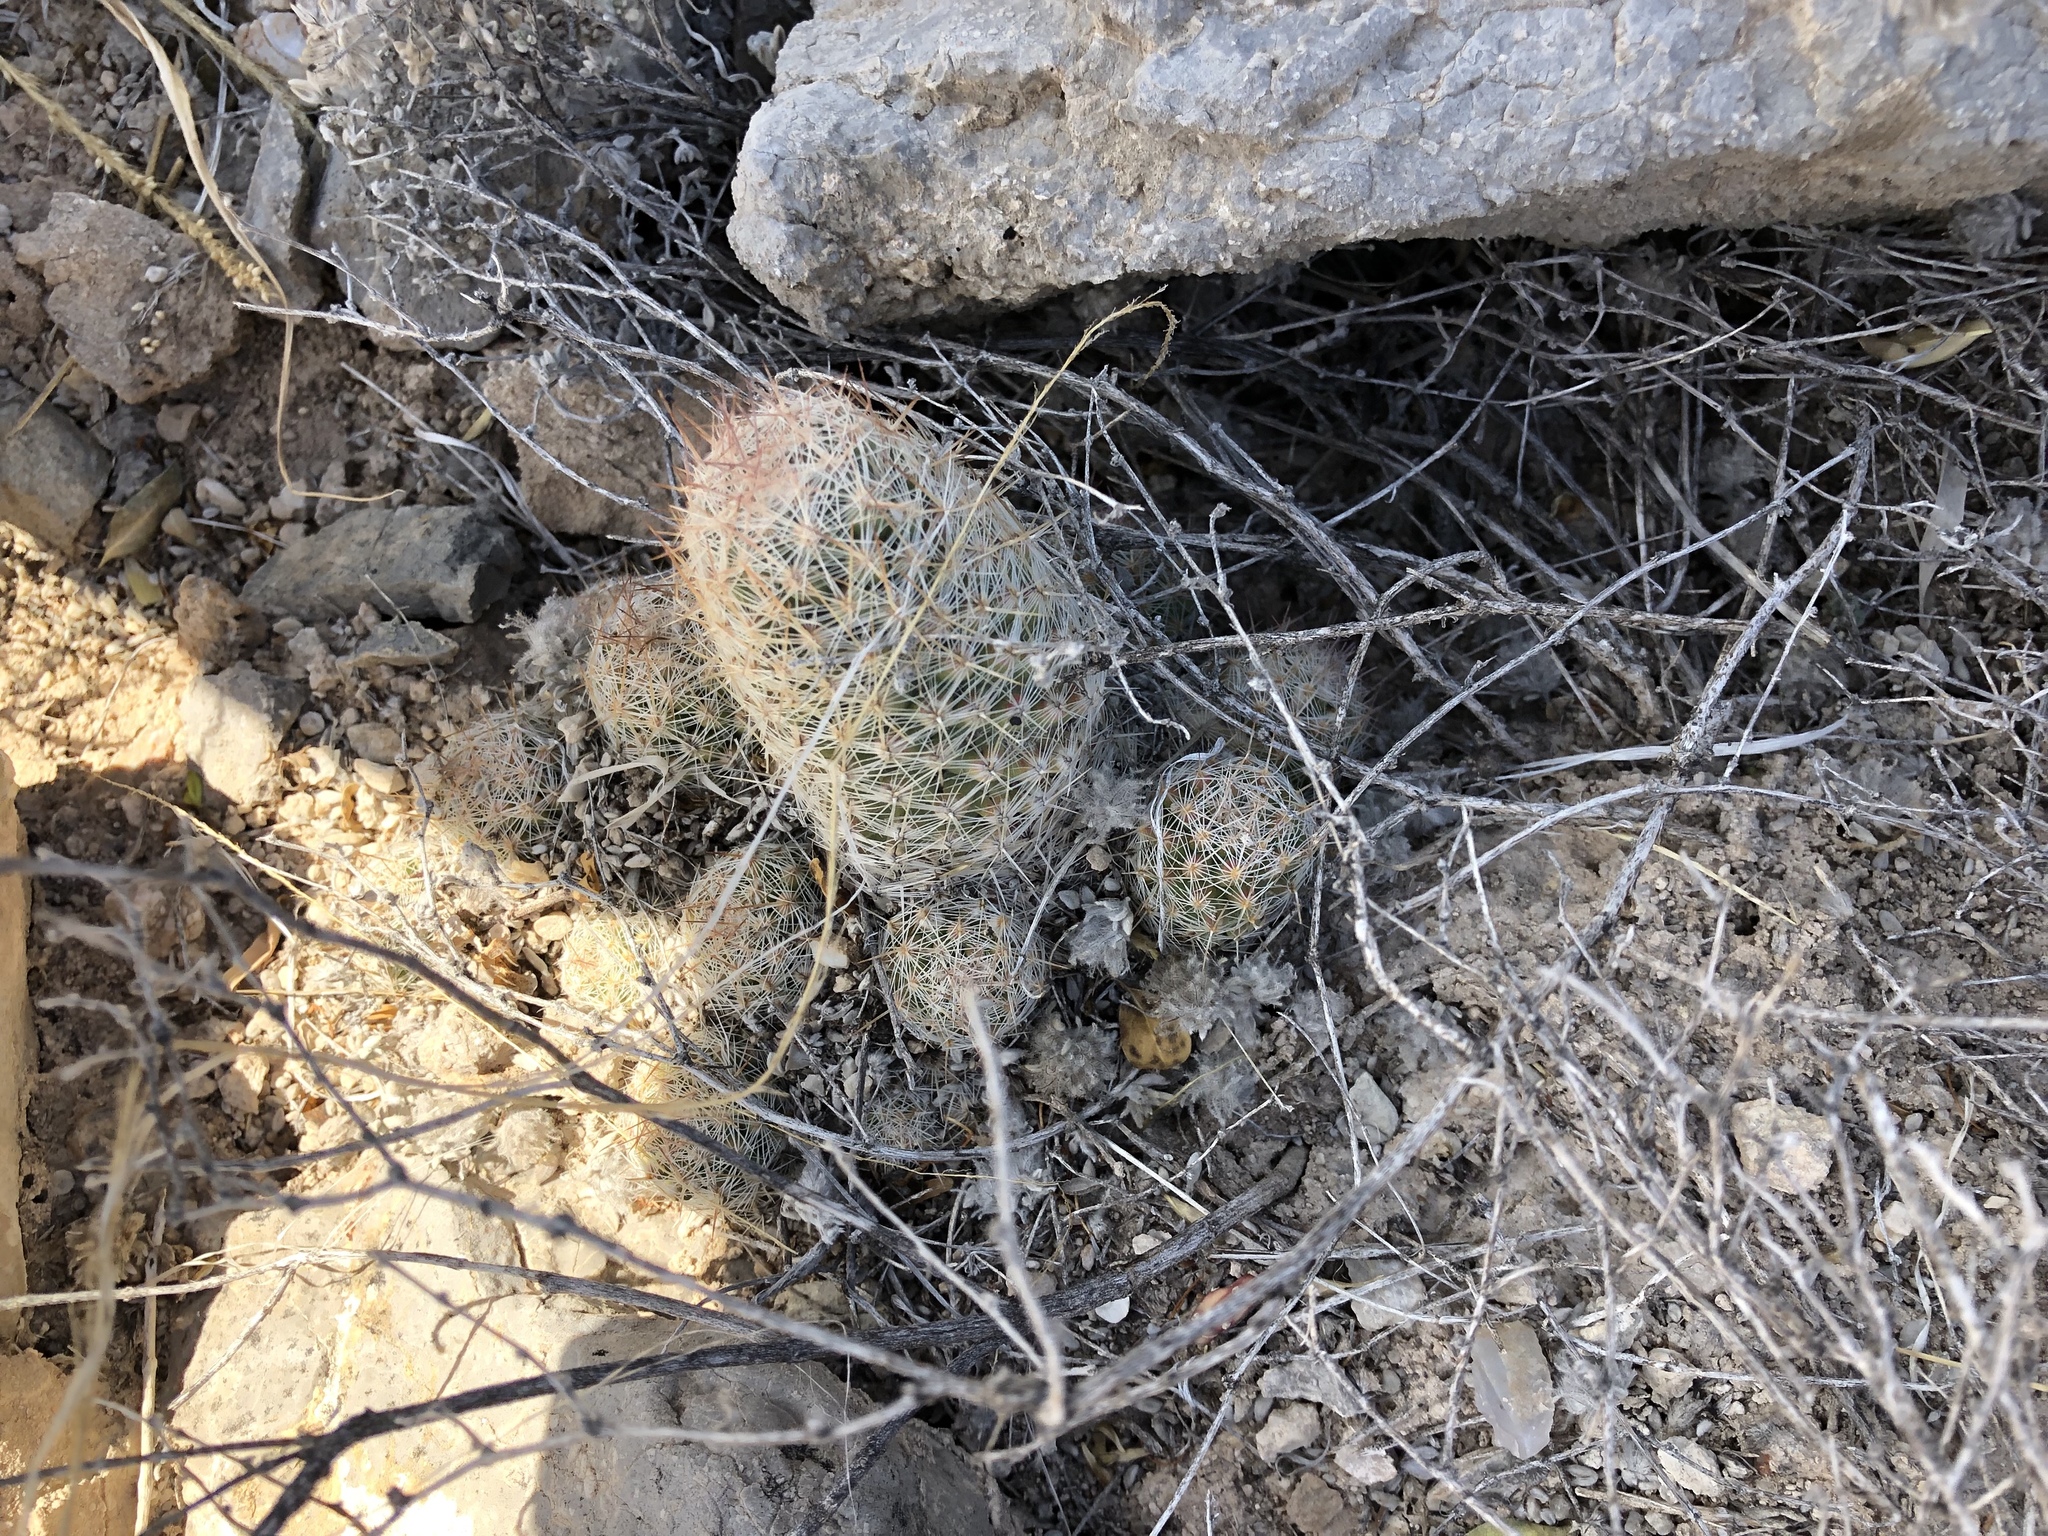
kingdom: Plantae
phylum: Tracheophyta
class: Magnoliopsida
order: Caryophyllales
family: Cactaceae
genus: Pelecyphora
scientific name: Pelecyphora tuberculosa
